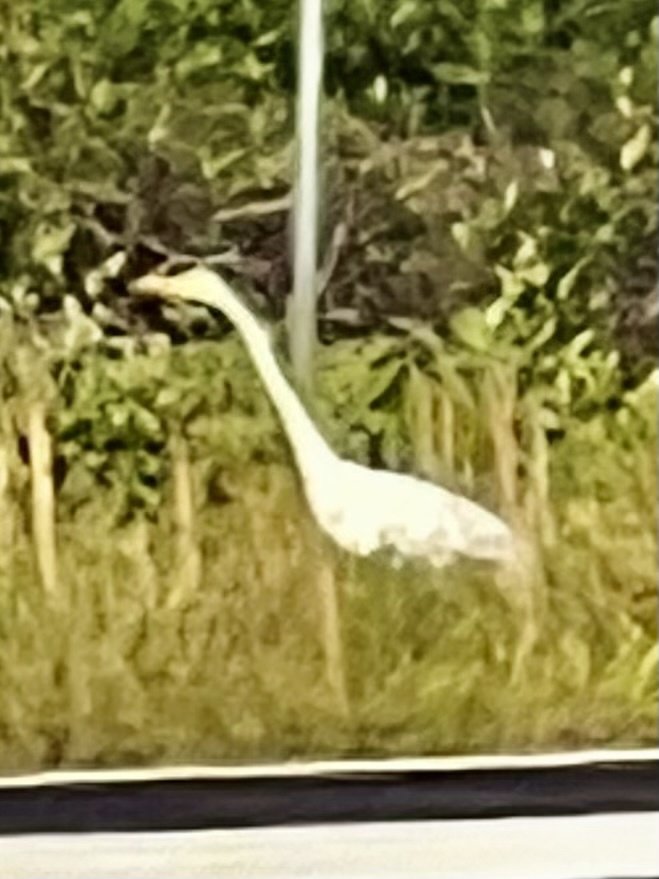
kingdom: Animalia
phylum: Chordata
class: Aves
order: Pelecaniformes
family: Ardeidae
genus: Ardea
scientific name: Ardea alba
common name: Great egret
